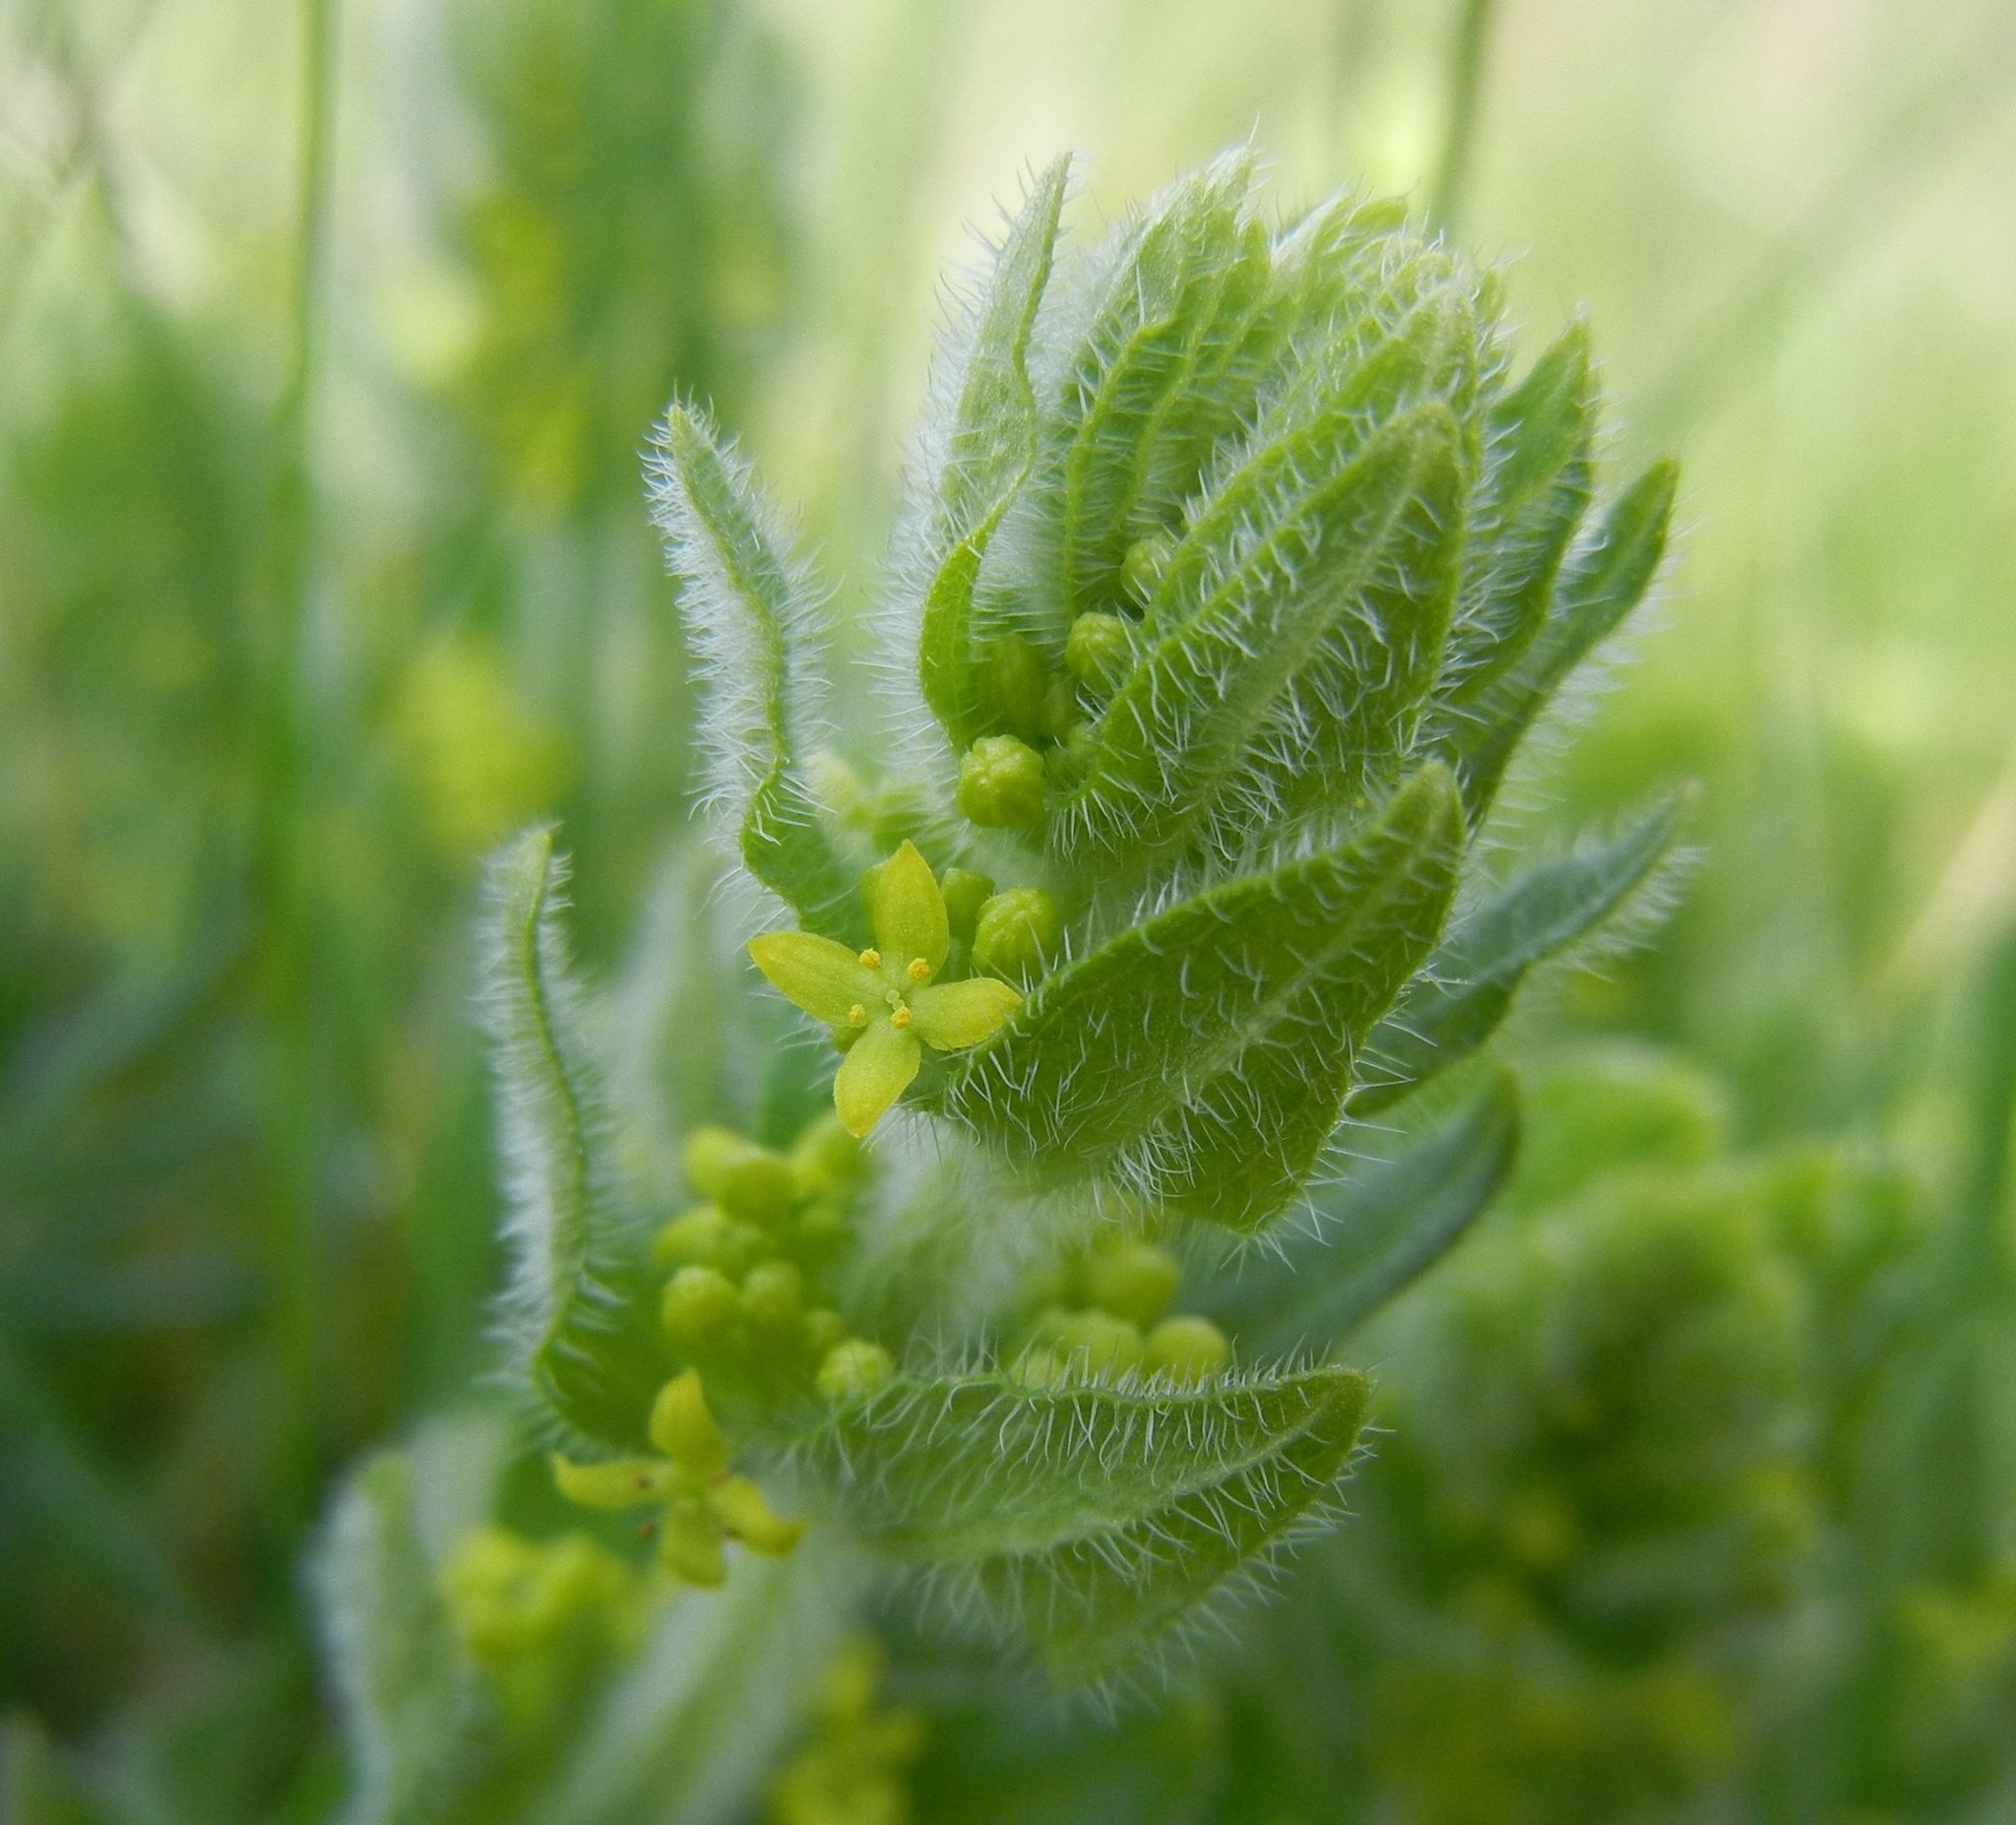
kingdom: Plantae
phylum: Tracheophyta
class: Magnoliopsida
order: Gentianales
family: Rubiaceae
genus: Cruciata
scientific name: Cruciata laevipes
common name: Crosswort
